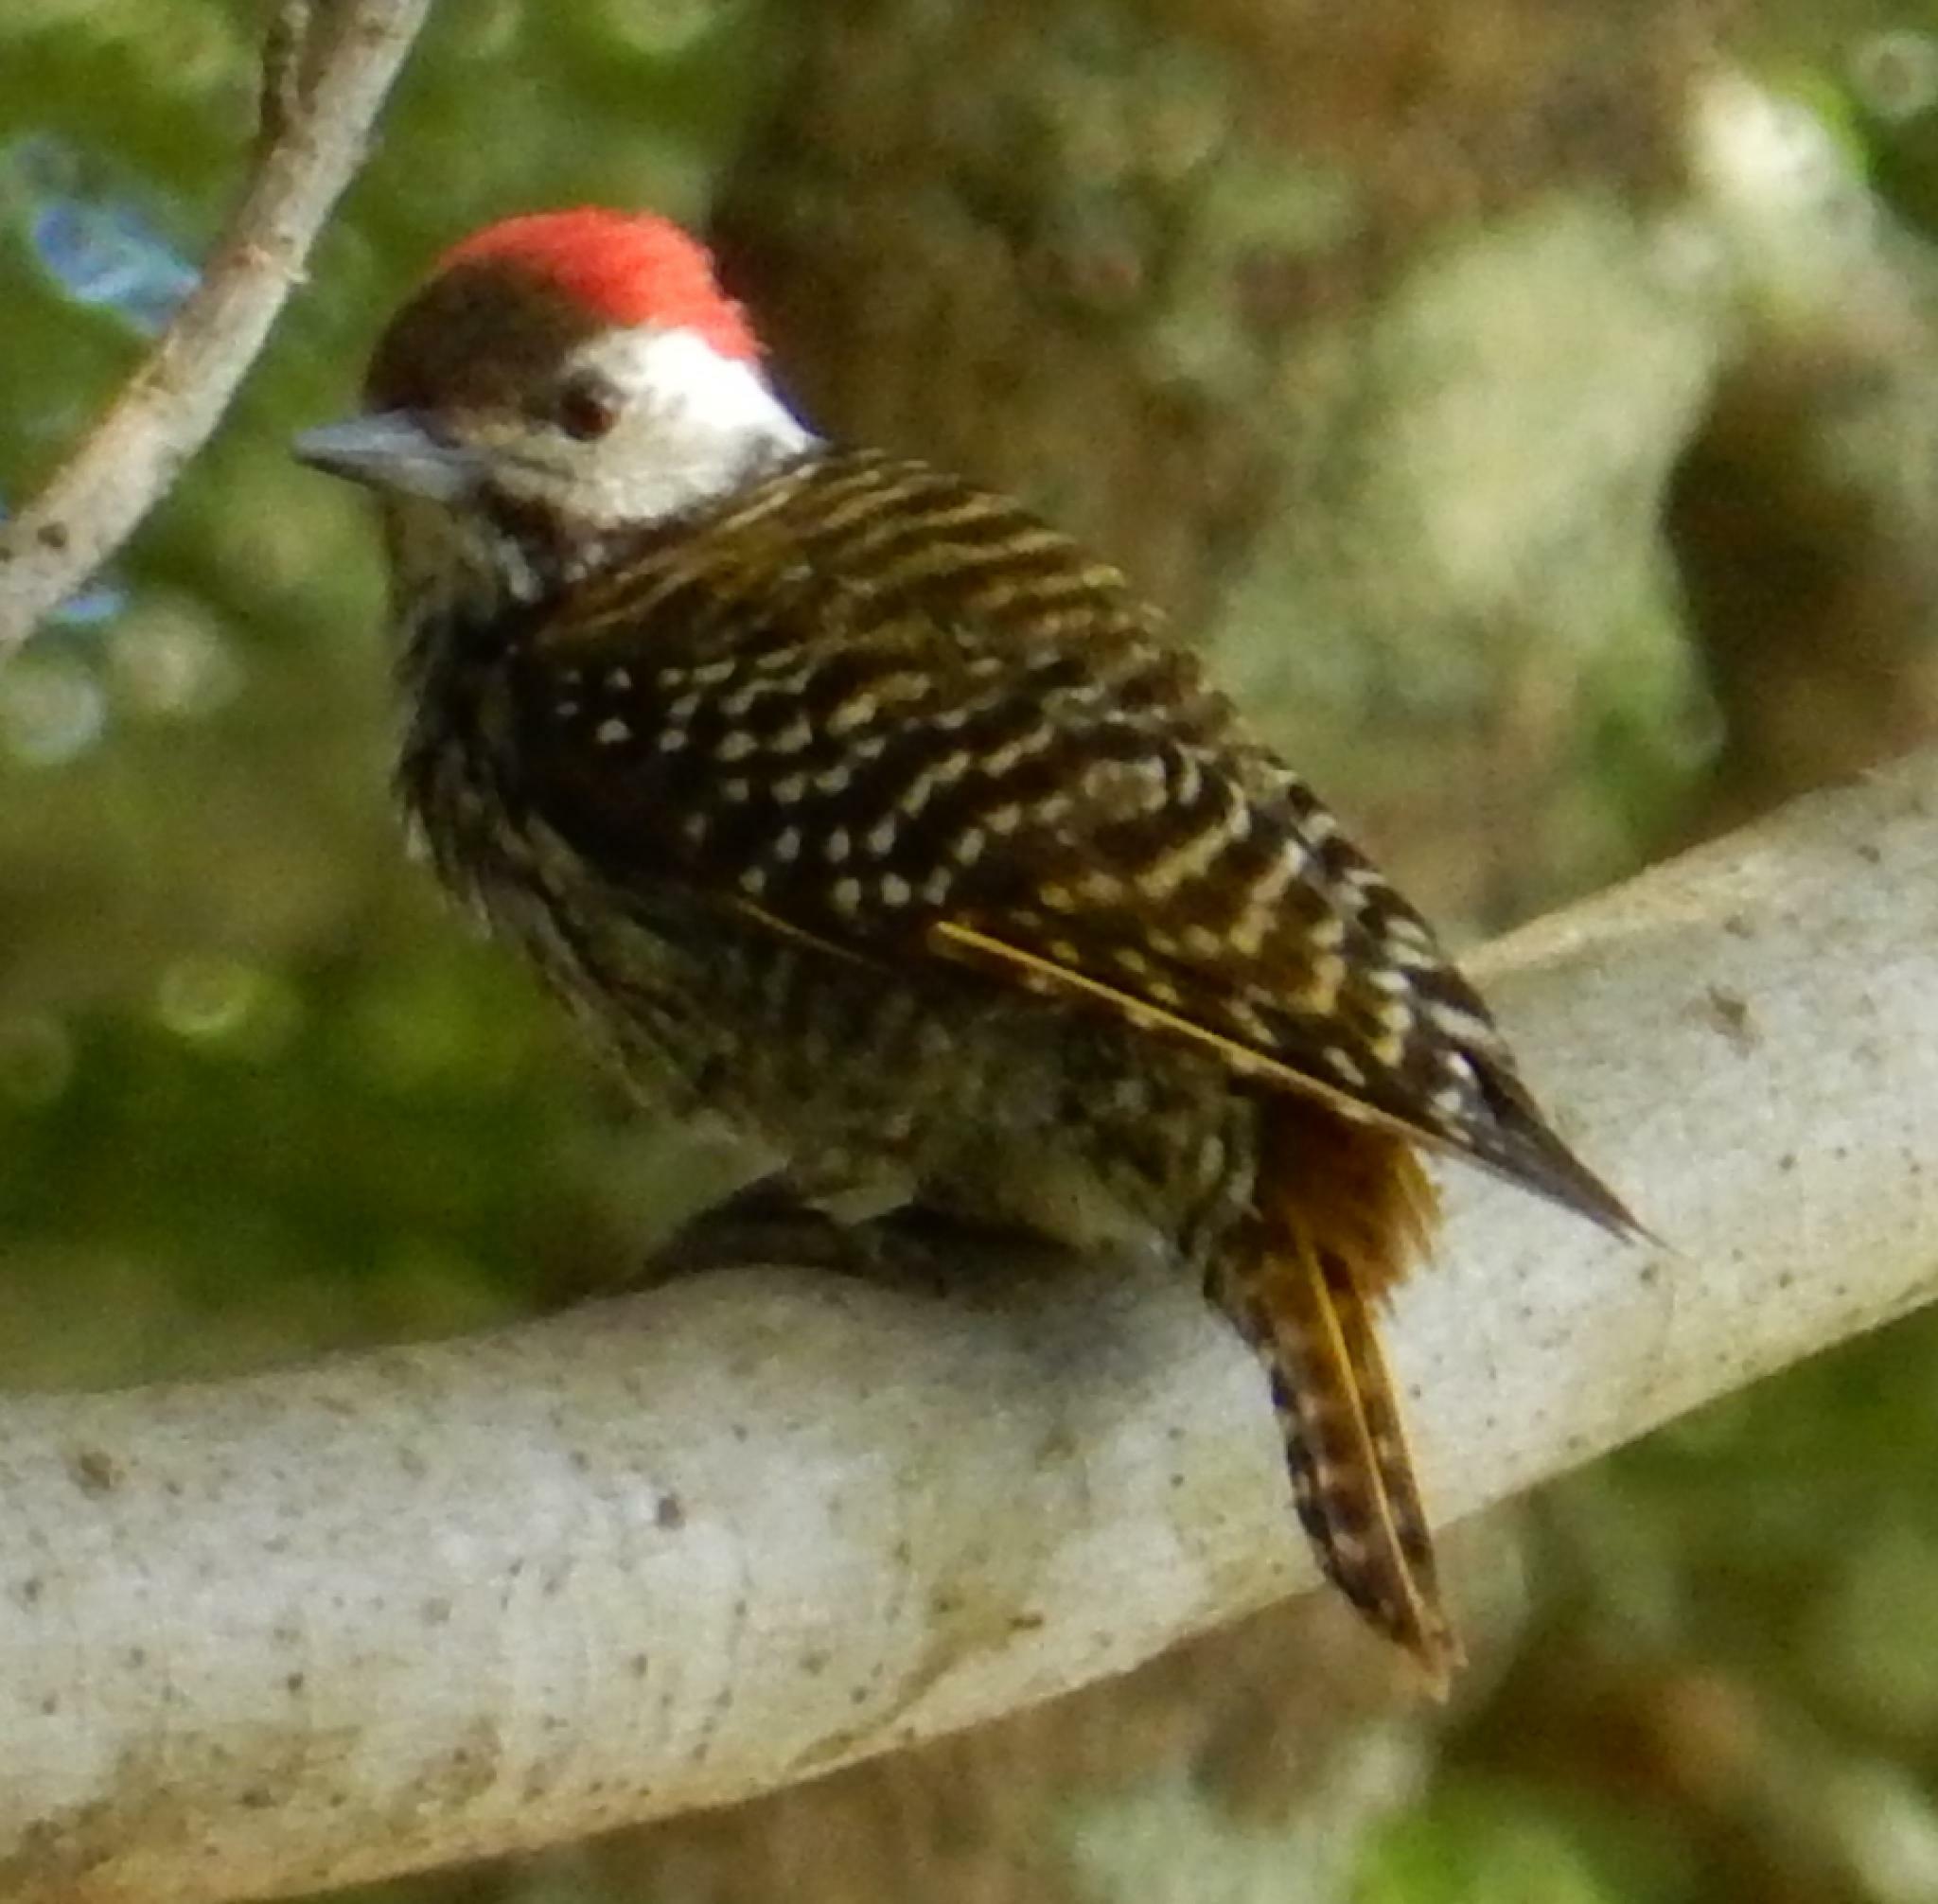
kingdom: Animalia
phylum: Chordata
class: Aves
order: Piciformes
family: Picidae
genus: Dendropicos
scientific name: Dendropicos fuscescens
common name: Cardinal woodpecker
